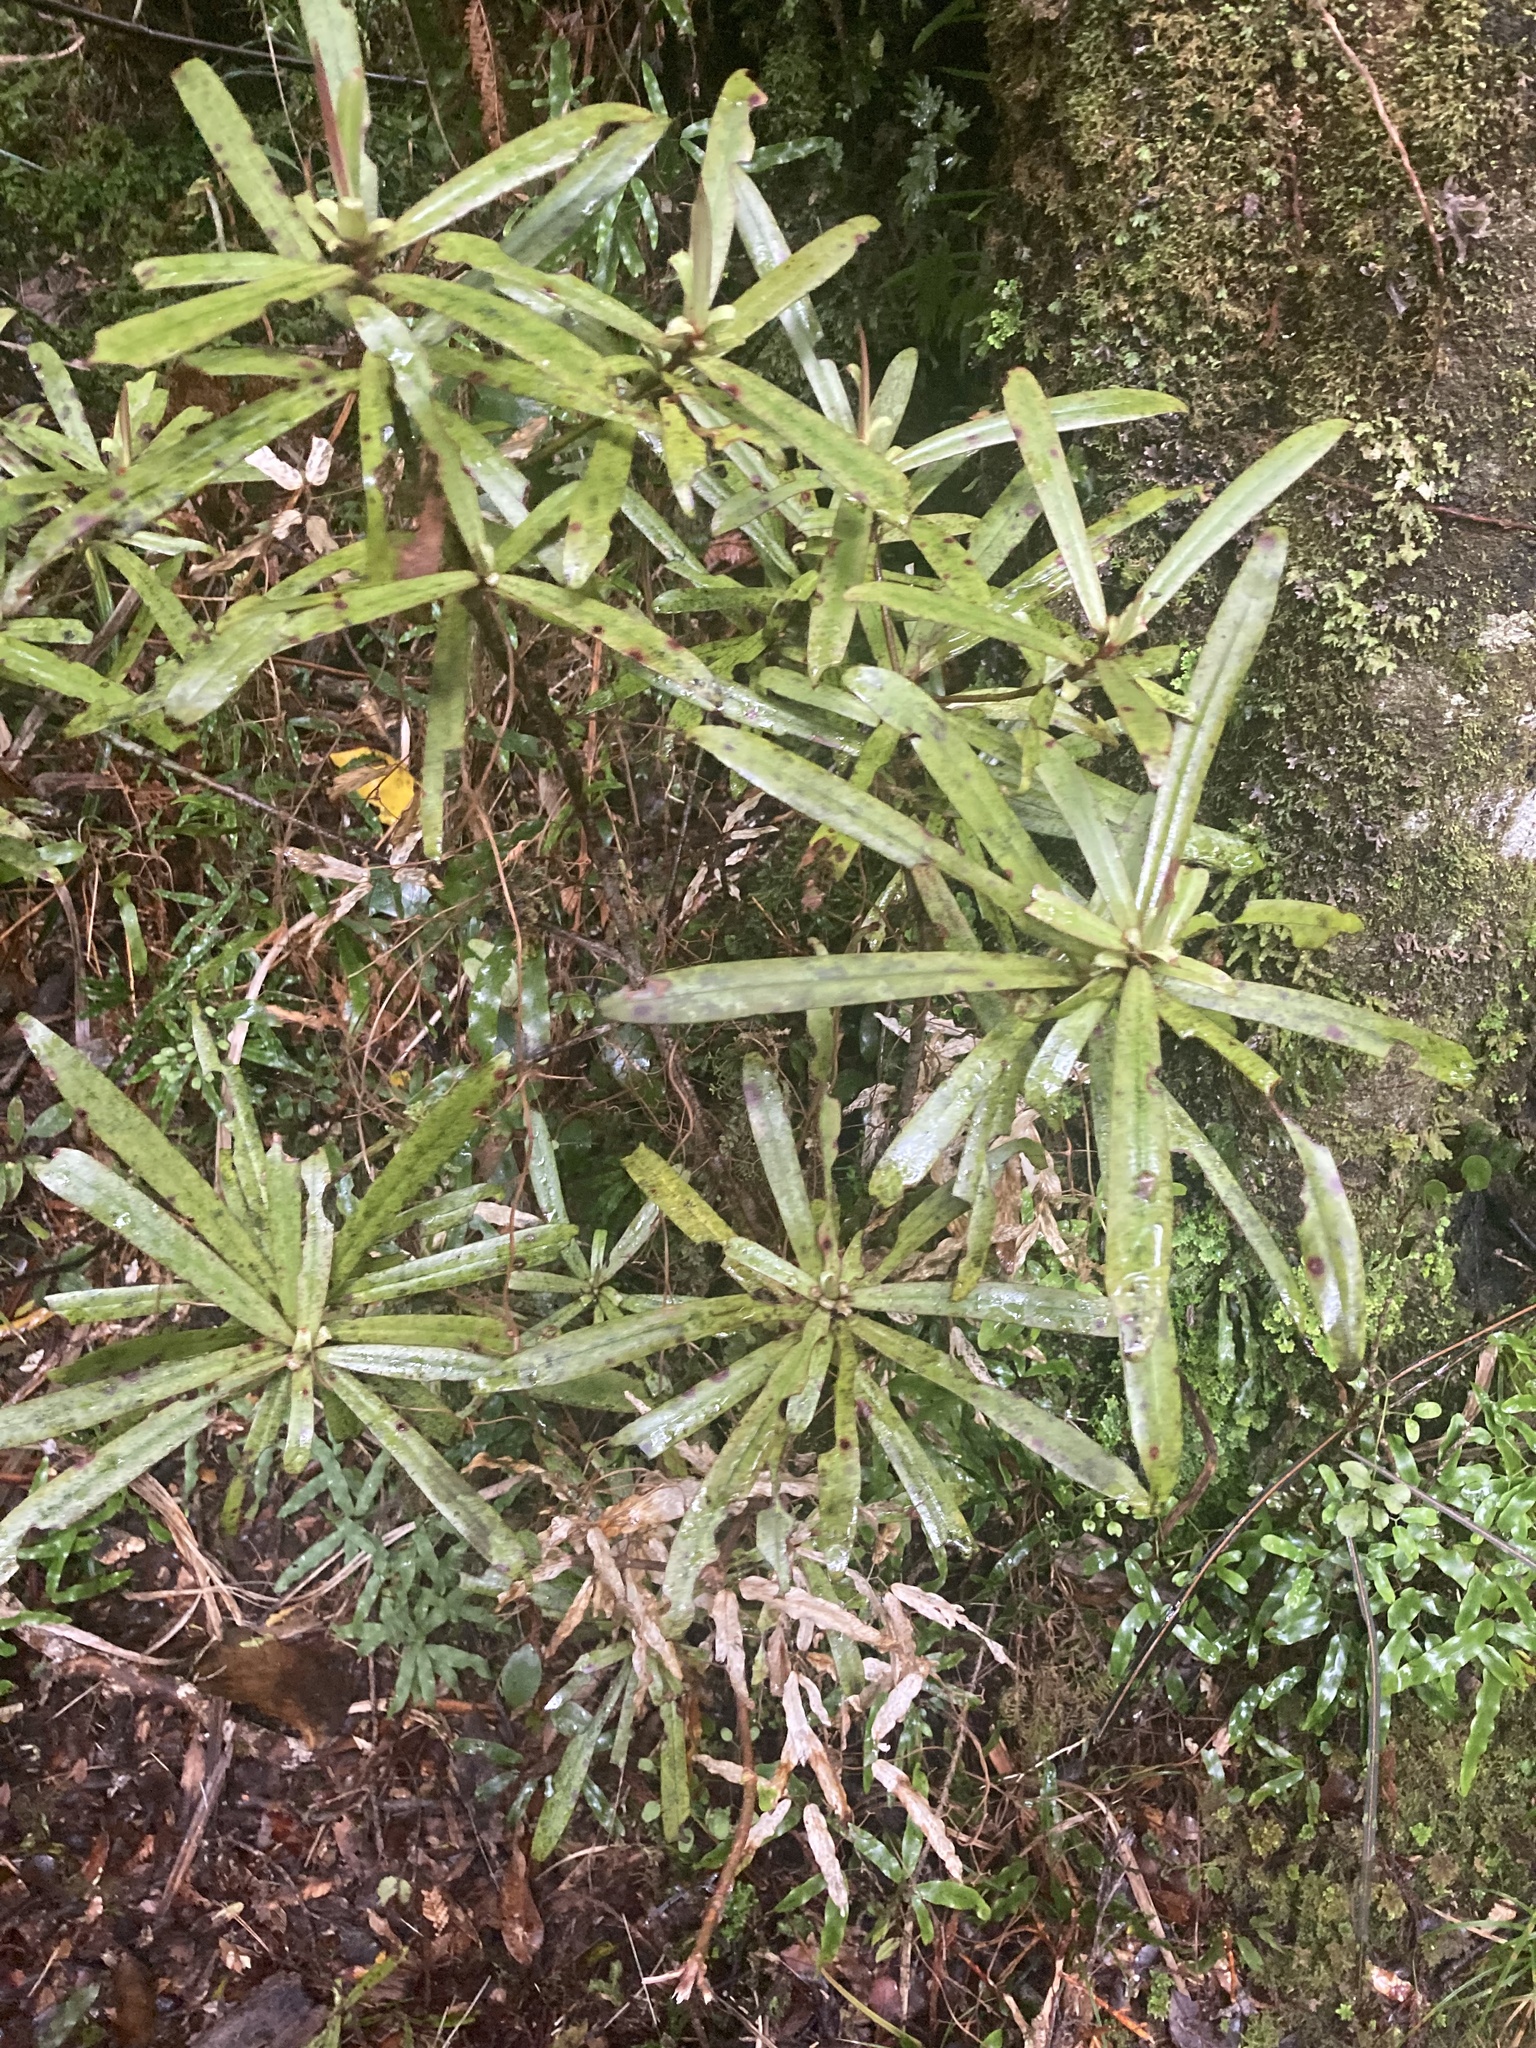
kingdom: Plantae
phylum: Tracheophyta
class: Magnoliopsida
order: Ericales
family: Primulaceae
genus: Myrsine
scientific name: Myrsine salicina
